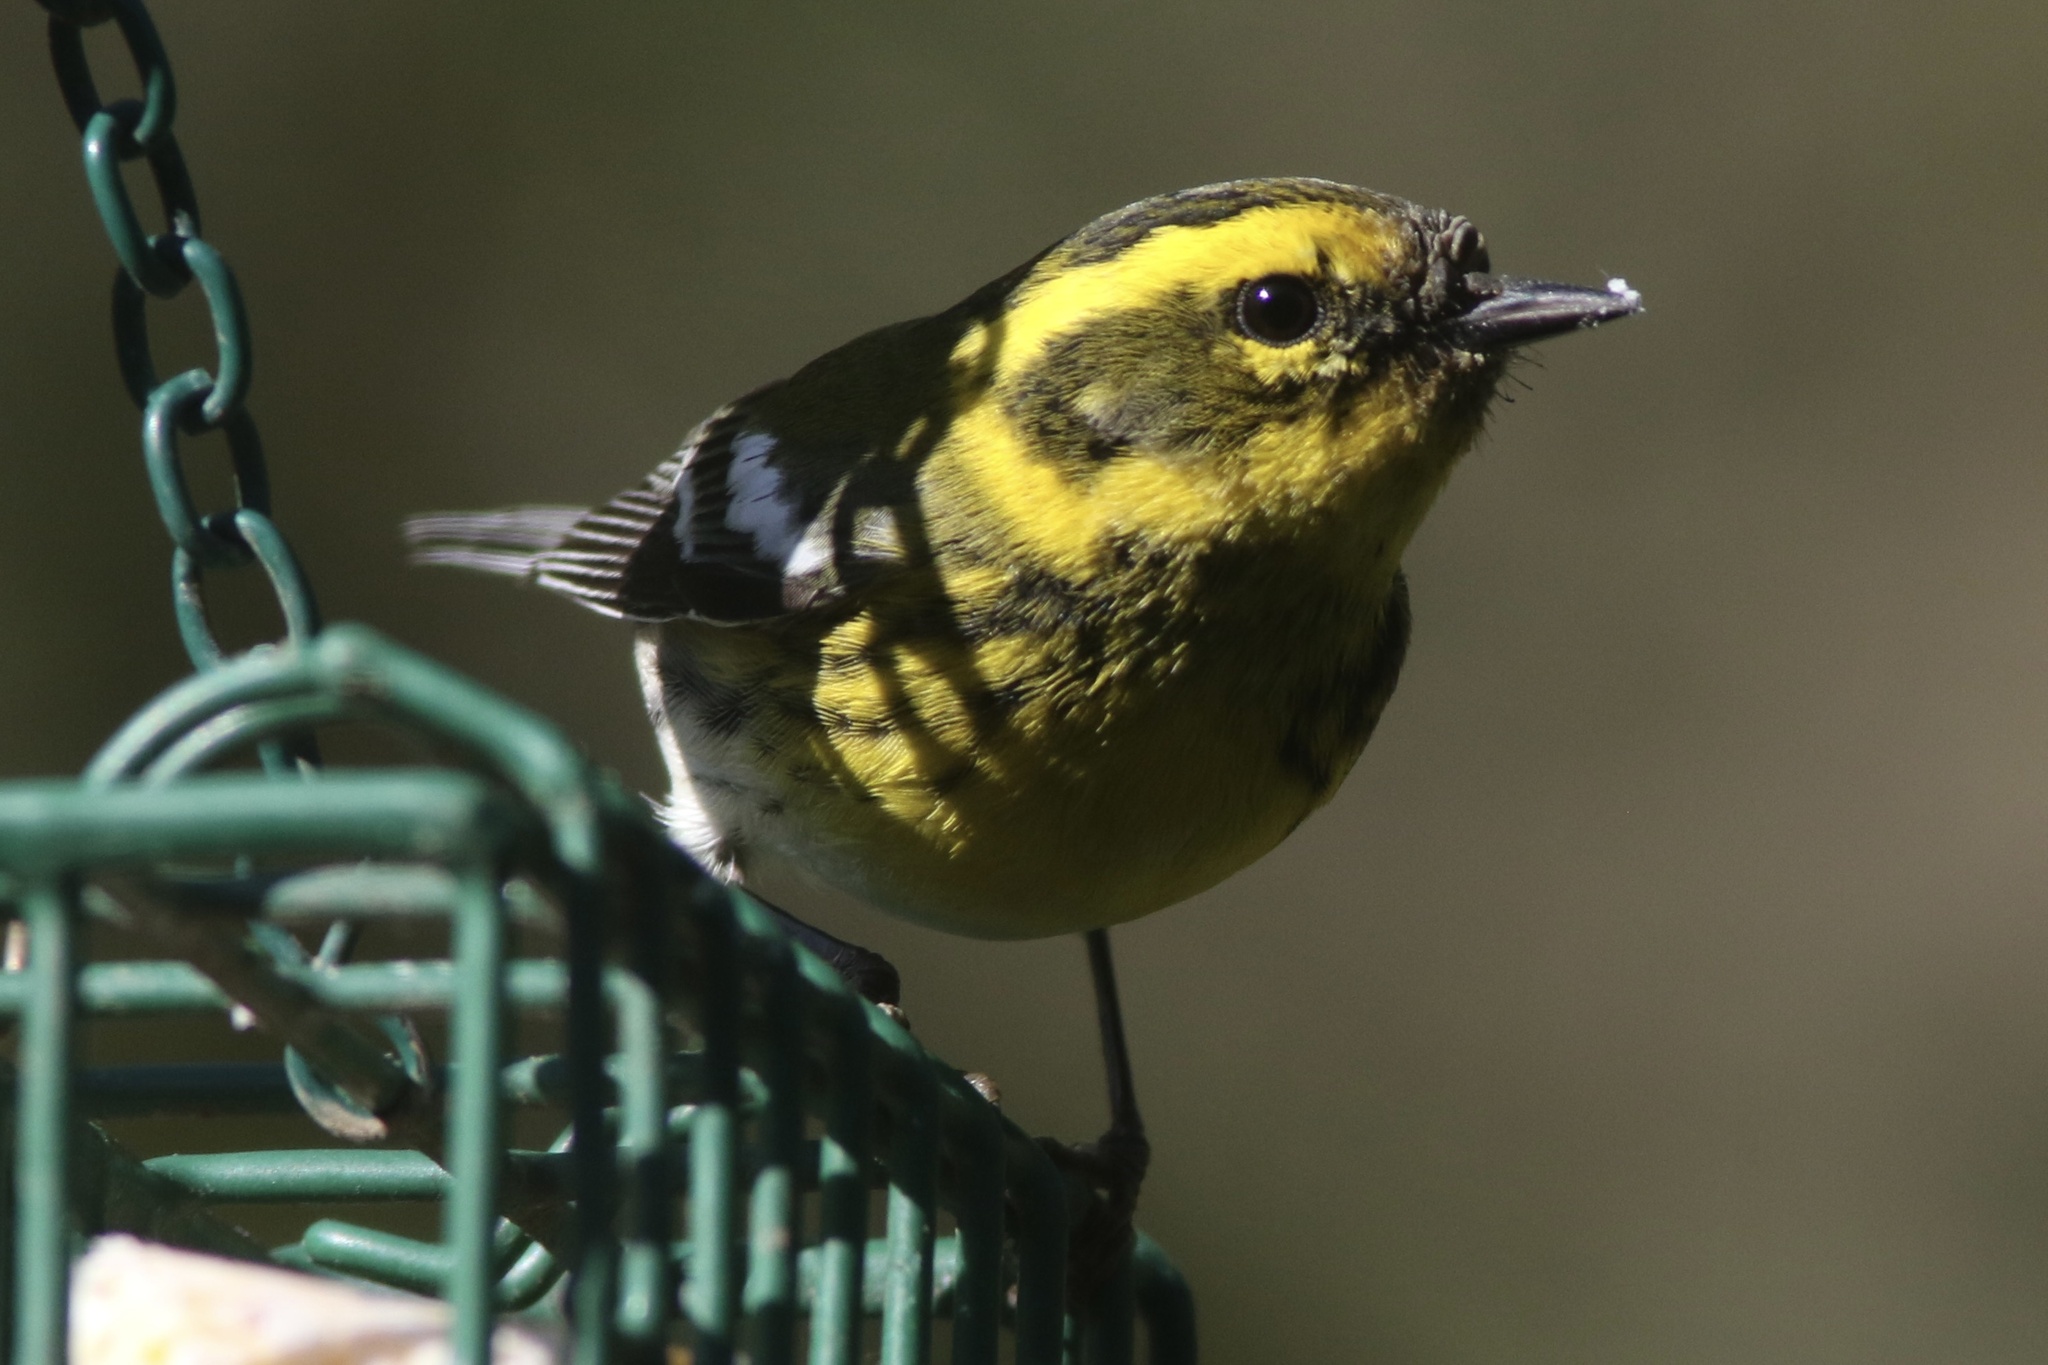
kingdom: Animalia
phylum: Chordata
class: Aves
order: Passeriformes
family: Parulidae
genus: Setophaga
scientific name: Setophaga townsendi
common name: Townsend's warbler
